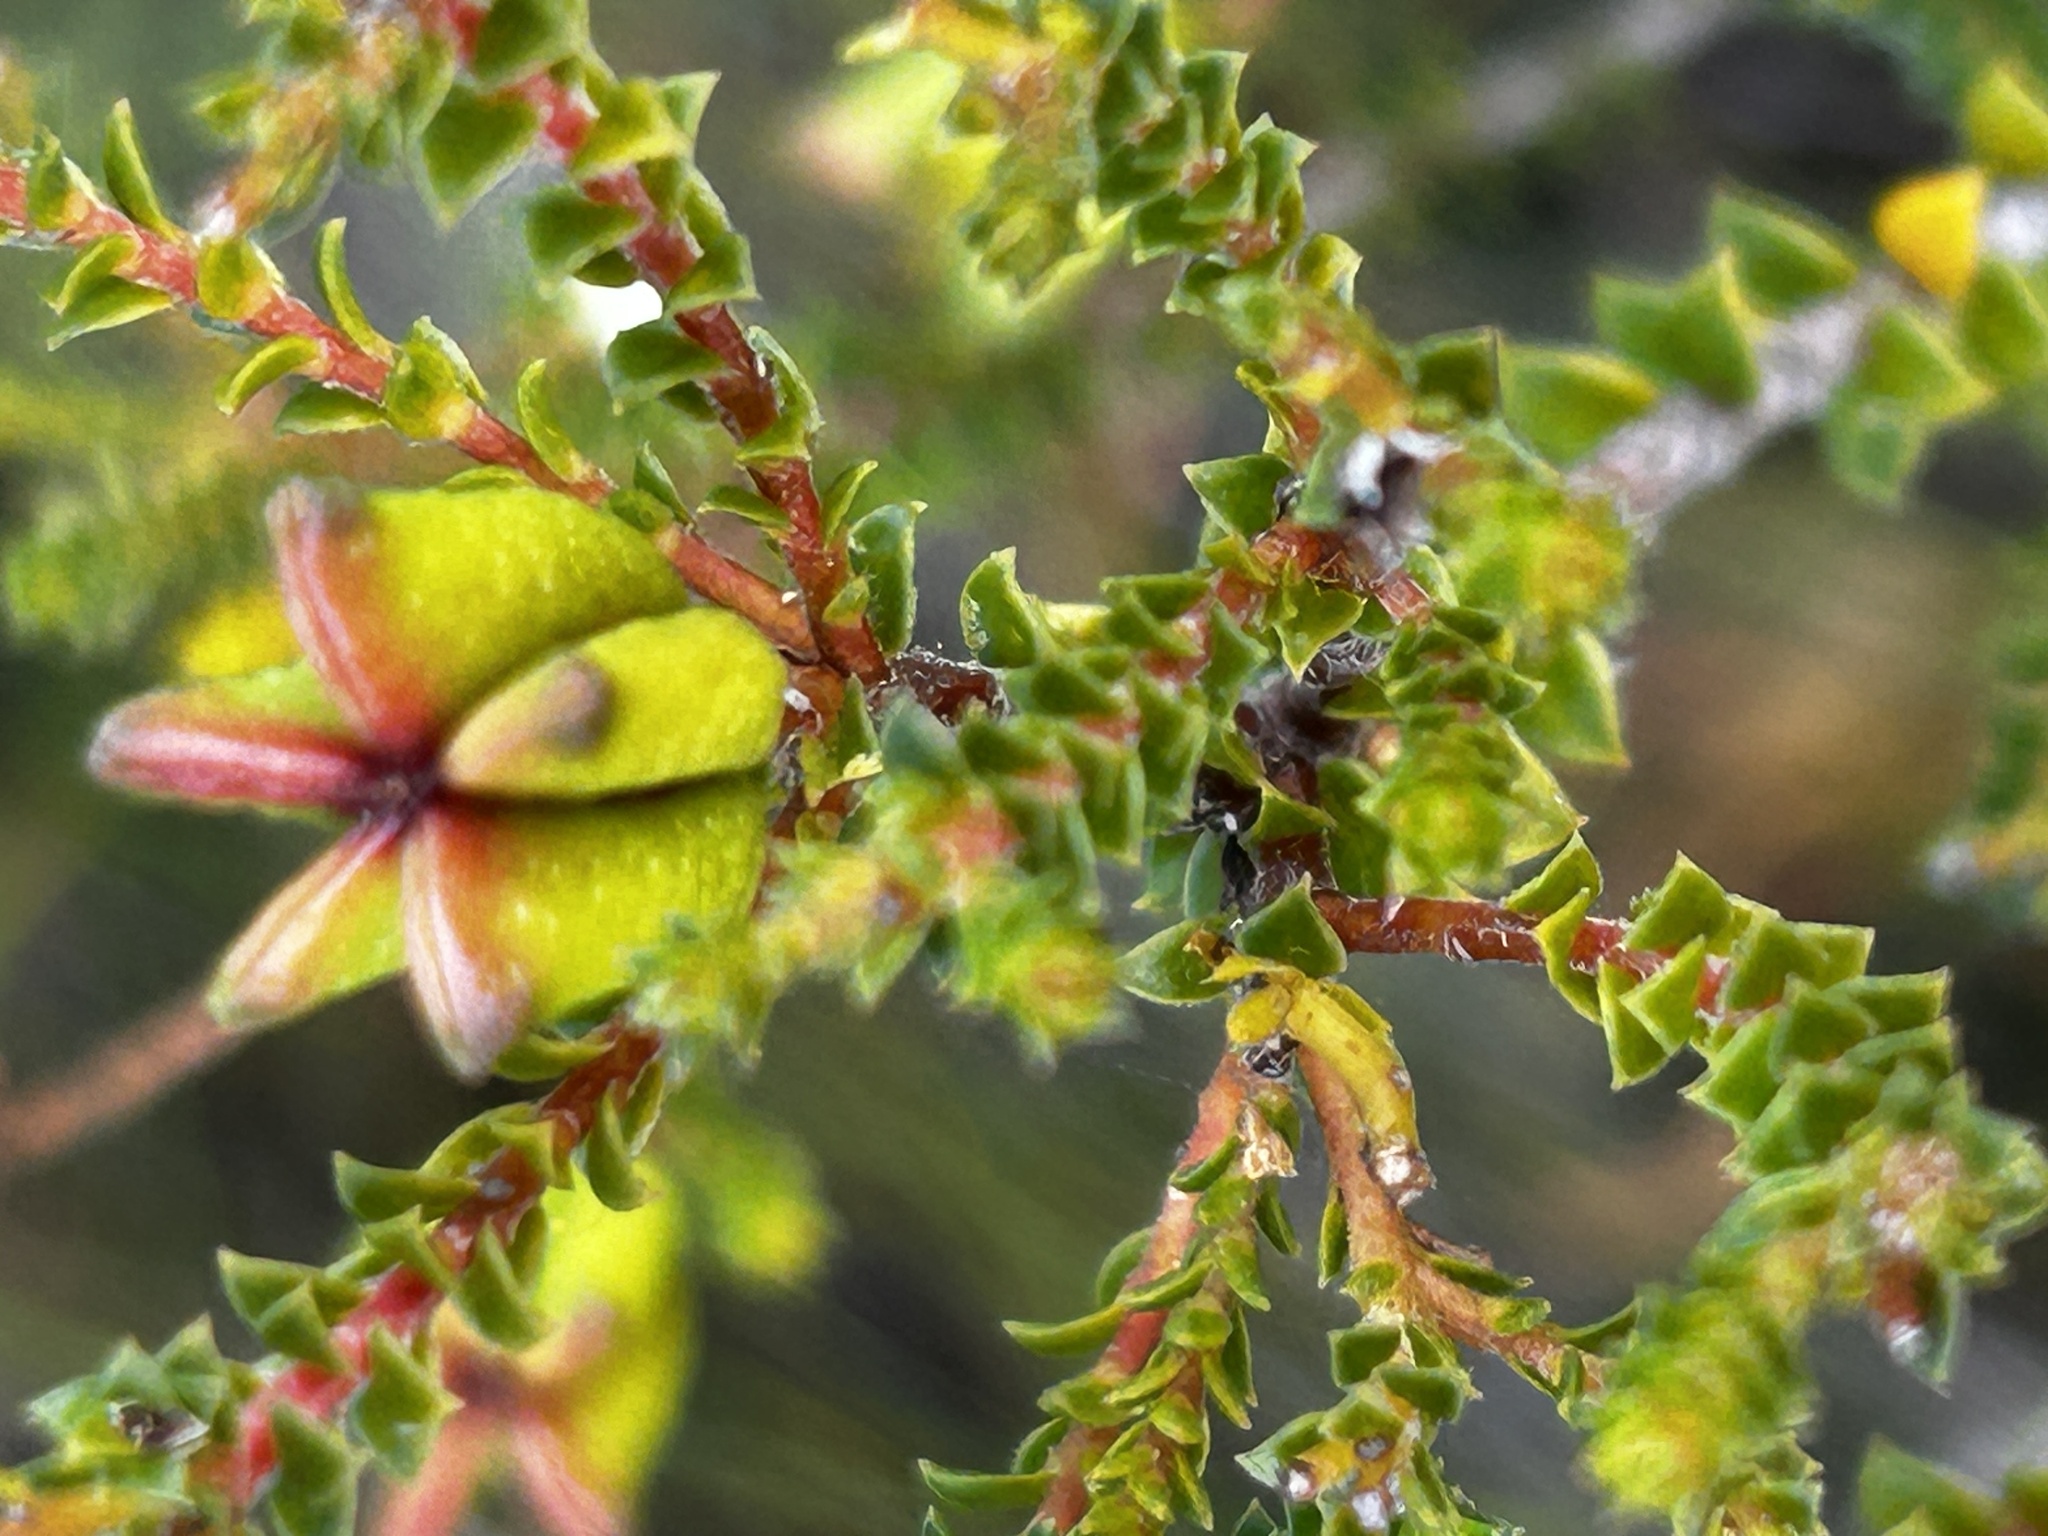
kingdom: Plantae
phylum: Tracheophyta
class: Magnoliopsida
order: Sapindales
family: Rutaceae
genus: Diosma
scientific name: Diosma echinulata
